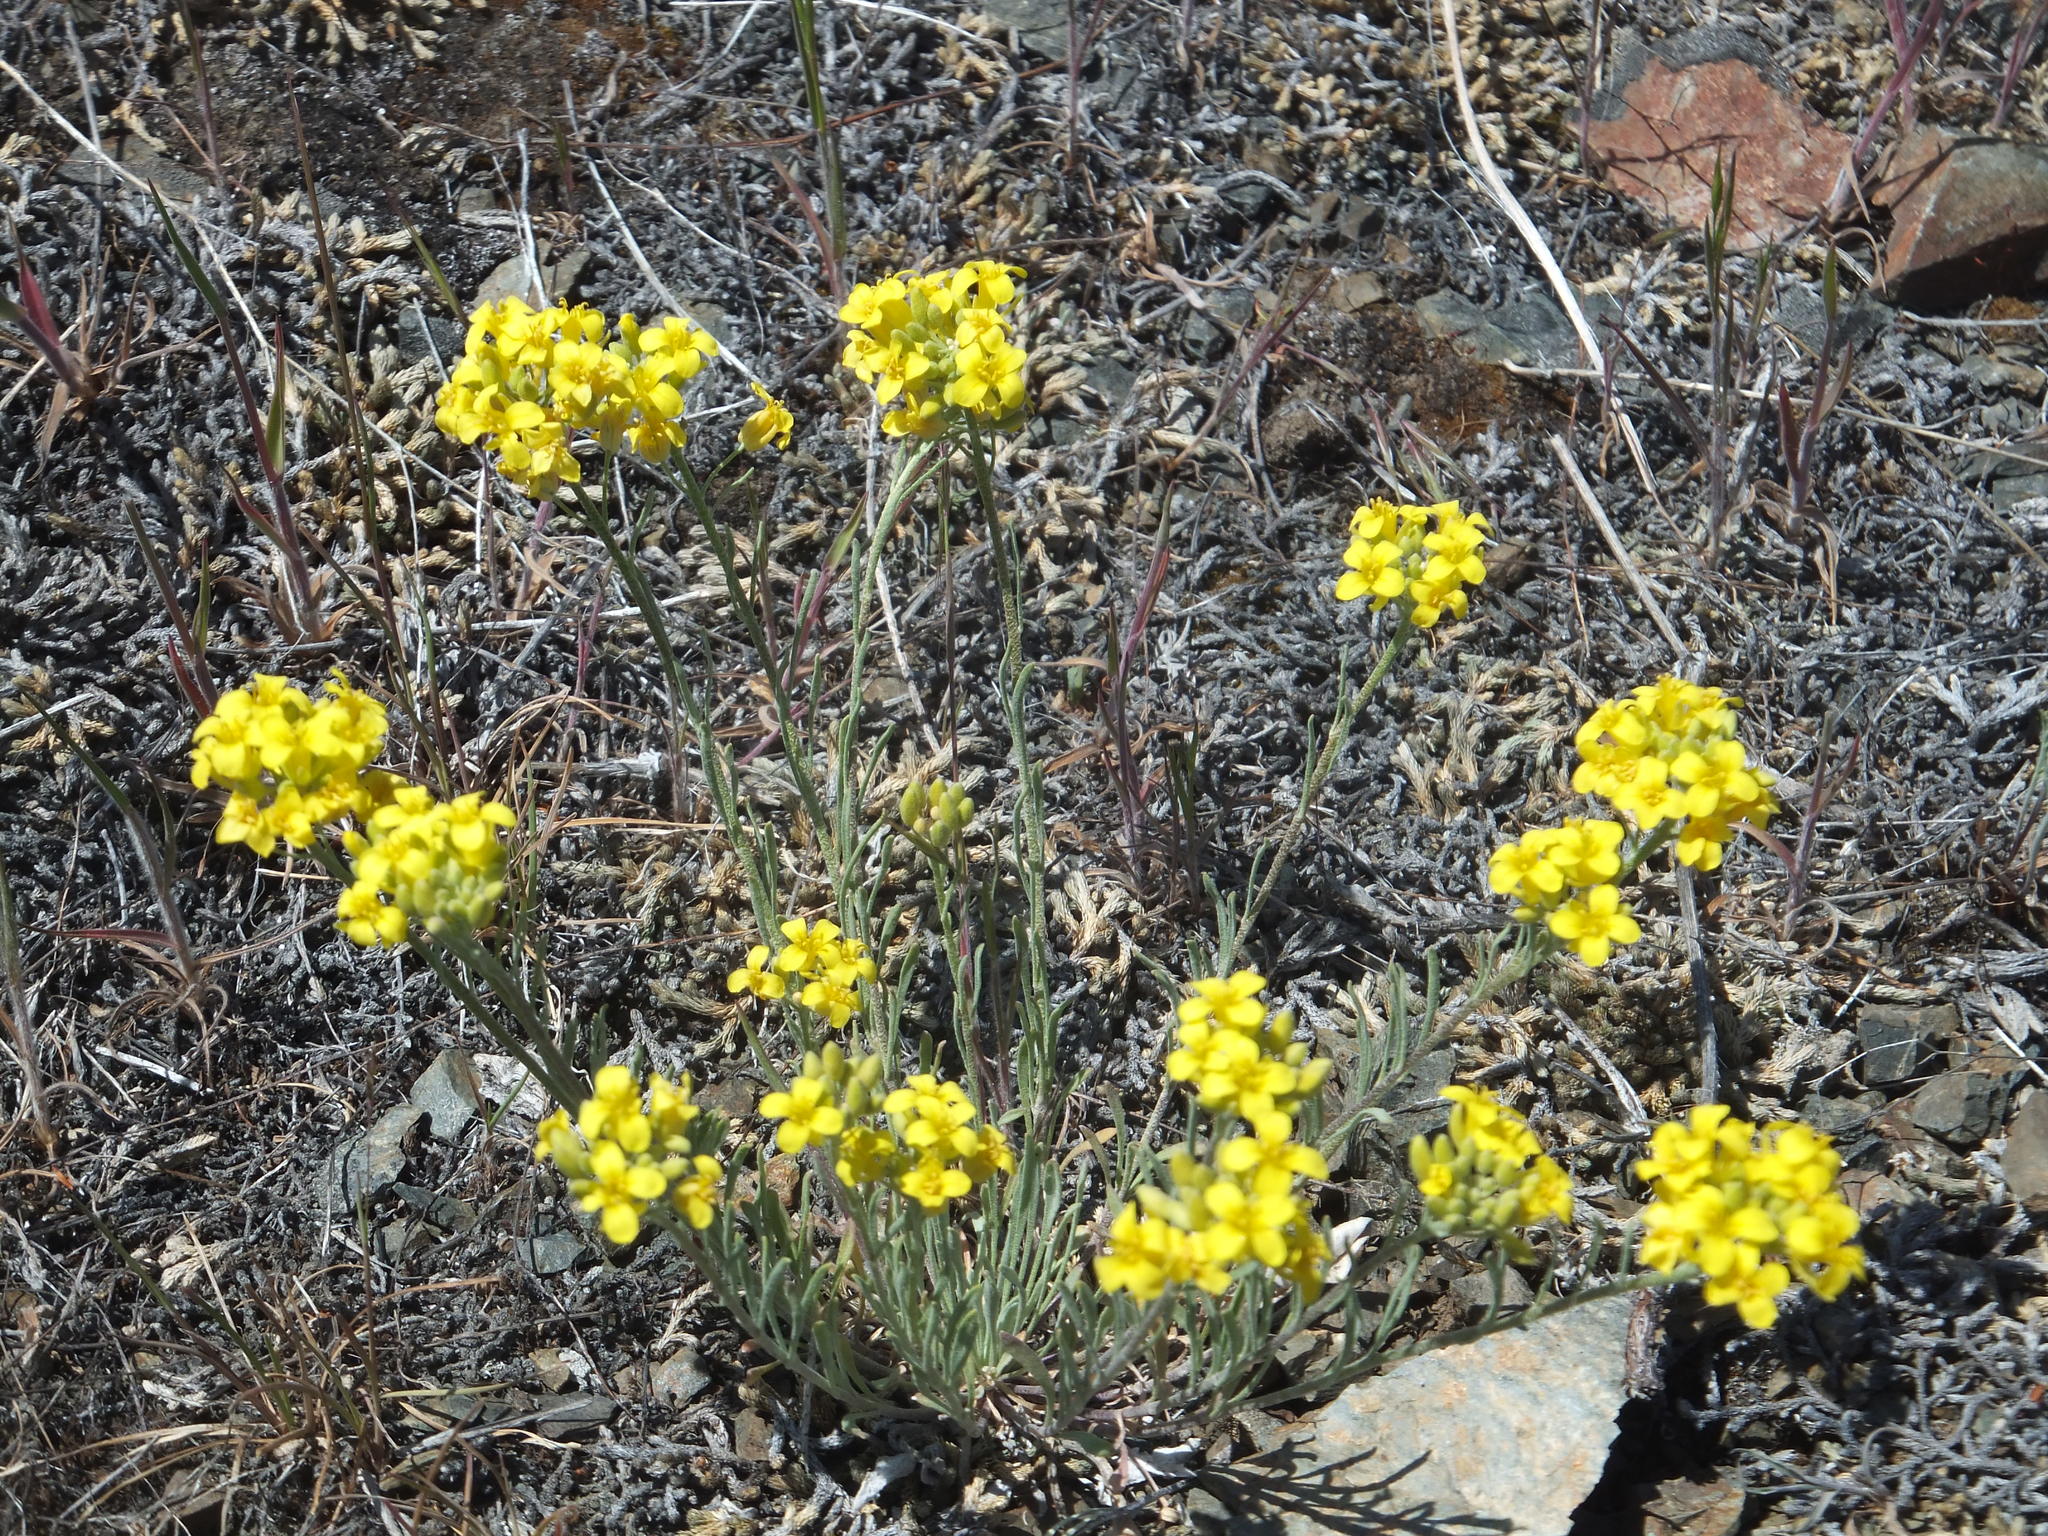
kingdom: Plantae
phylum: Tracheophyta
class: Magnoliopsida
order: Brassicales
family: Brassicaceae
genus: Physaria
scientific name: Physaria douglasii
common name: Douglas's bladderpod
